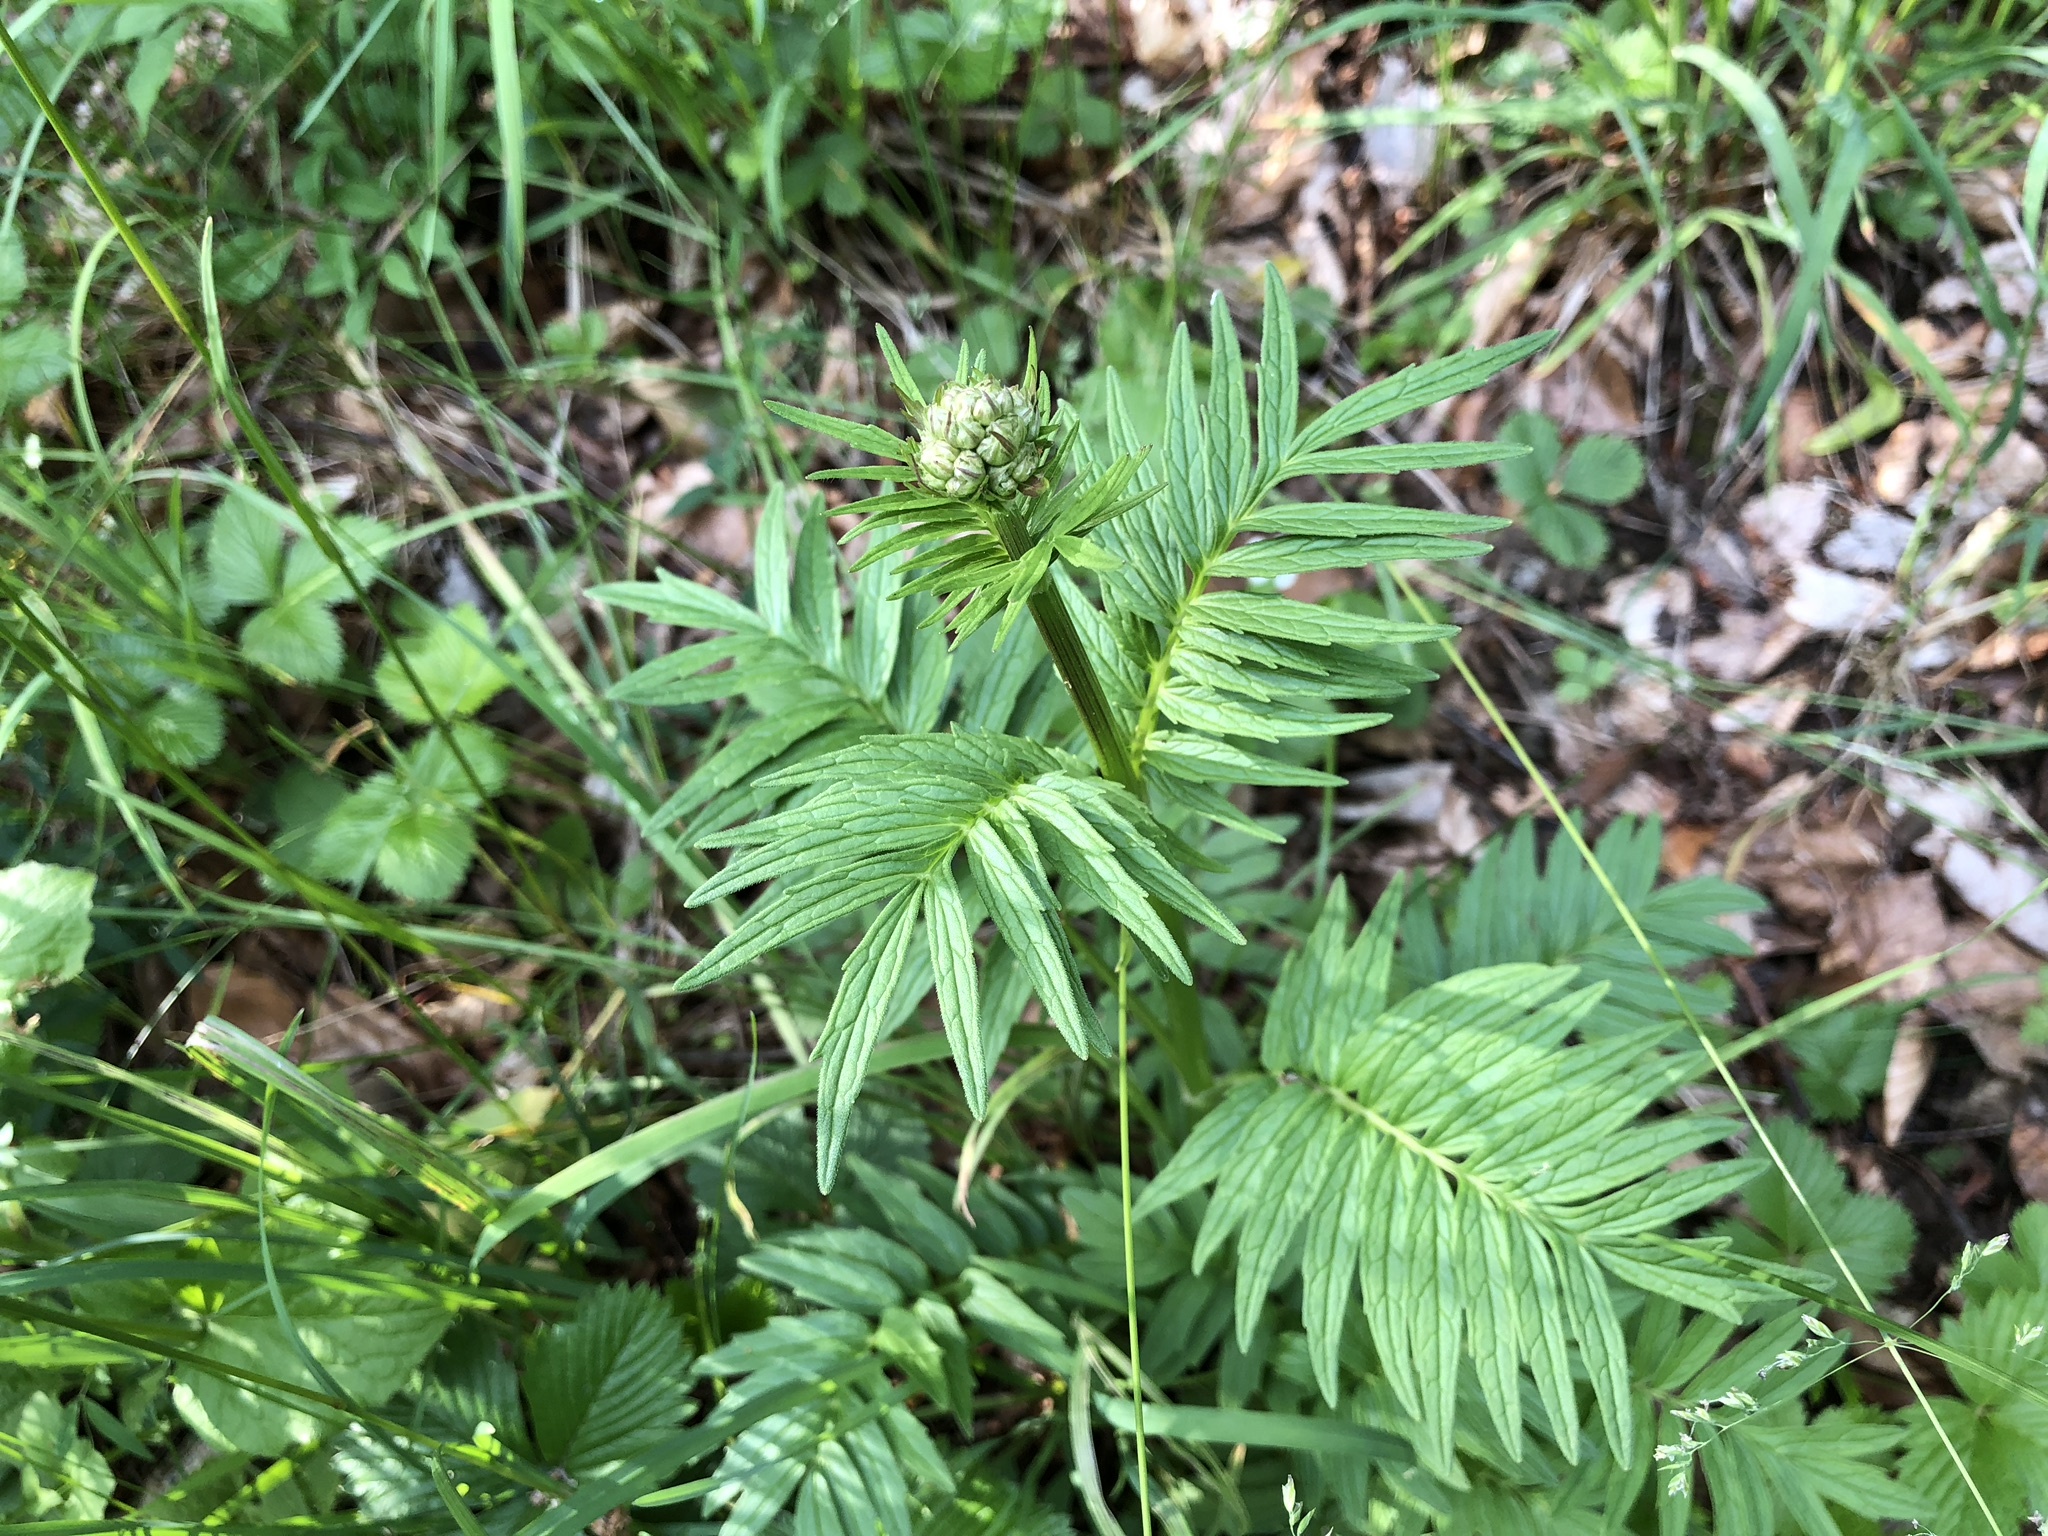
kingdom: Plantae
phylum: Tracheophyta
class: Magnoliopsida
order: Dipsacales
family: Caprifoliaceae
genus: Valeriana
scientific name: Valeriana officinalis
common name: Common valerian
